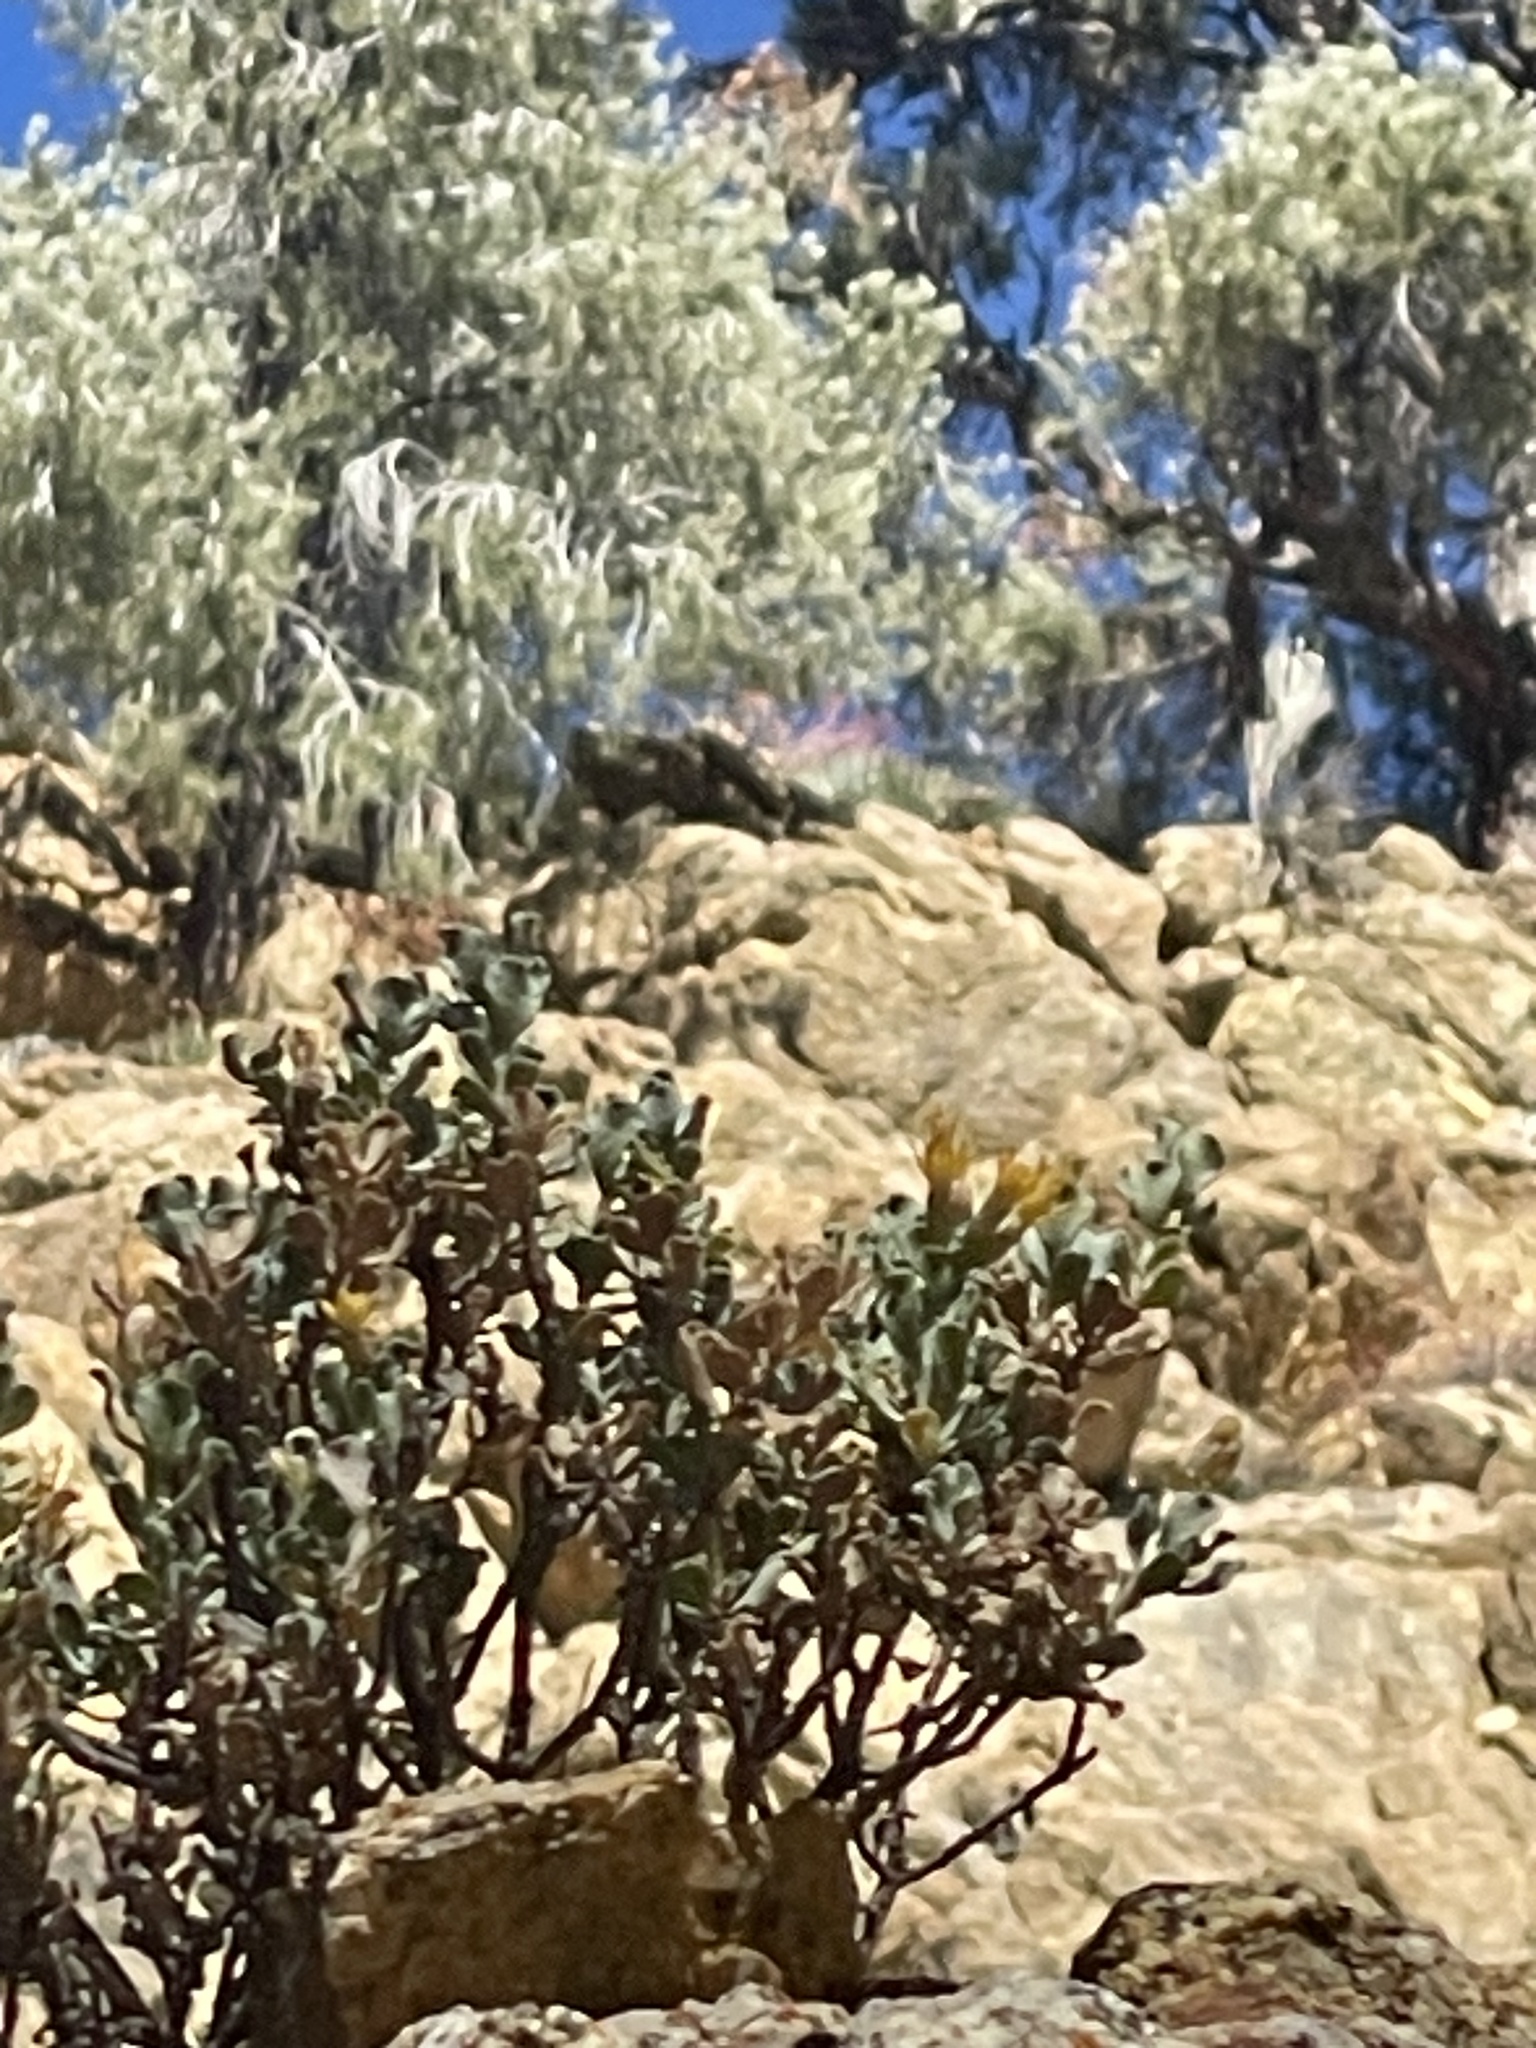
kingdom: Plantae
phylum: Tracheophyta
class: Magnoliopsida
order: Asterales
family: Asteraceae
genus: Ericameria
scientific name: Ericameria cuneata
